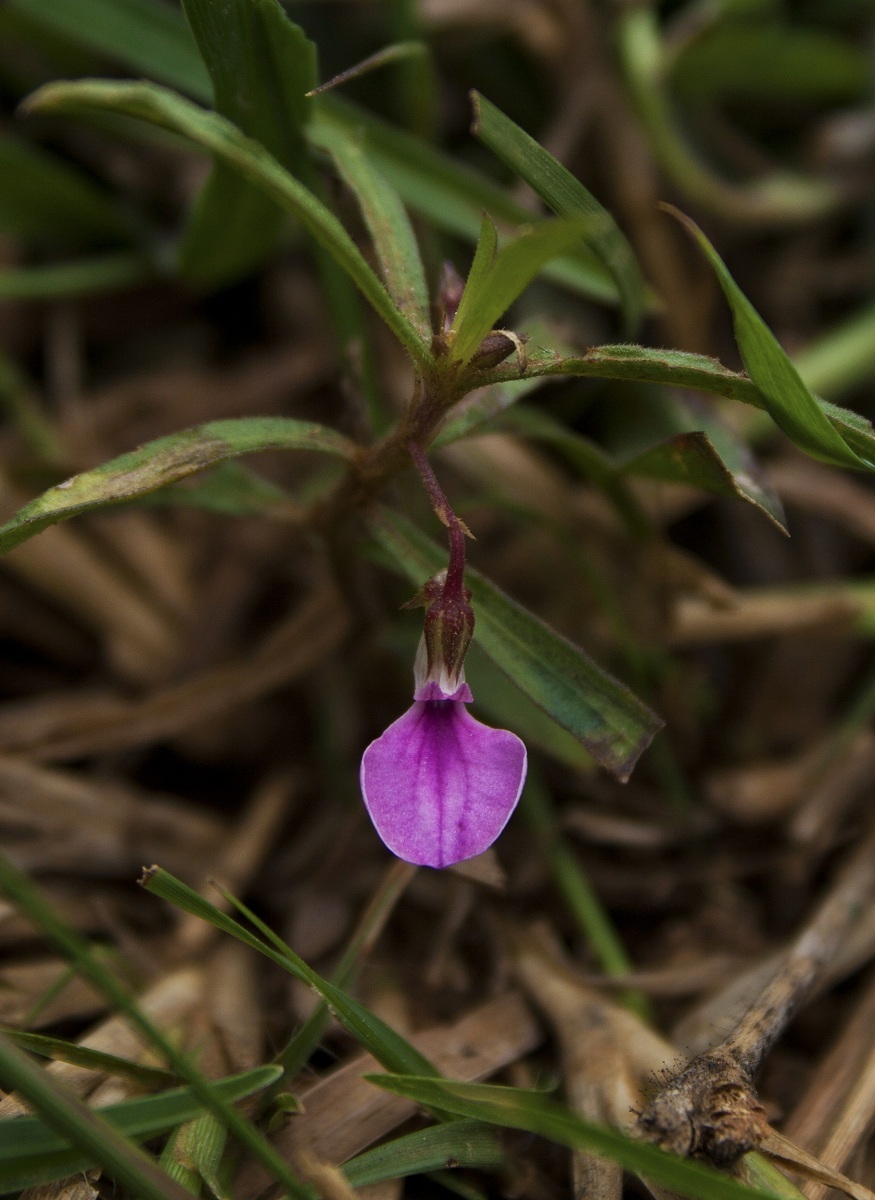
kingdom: Plantae
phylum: Tracheophyta
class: Magnoliopsida
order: Malpighiales
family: Violaceae
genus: Pigea
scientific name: Pigea enneasperma
